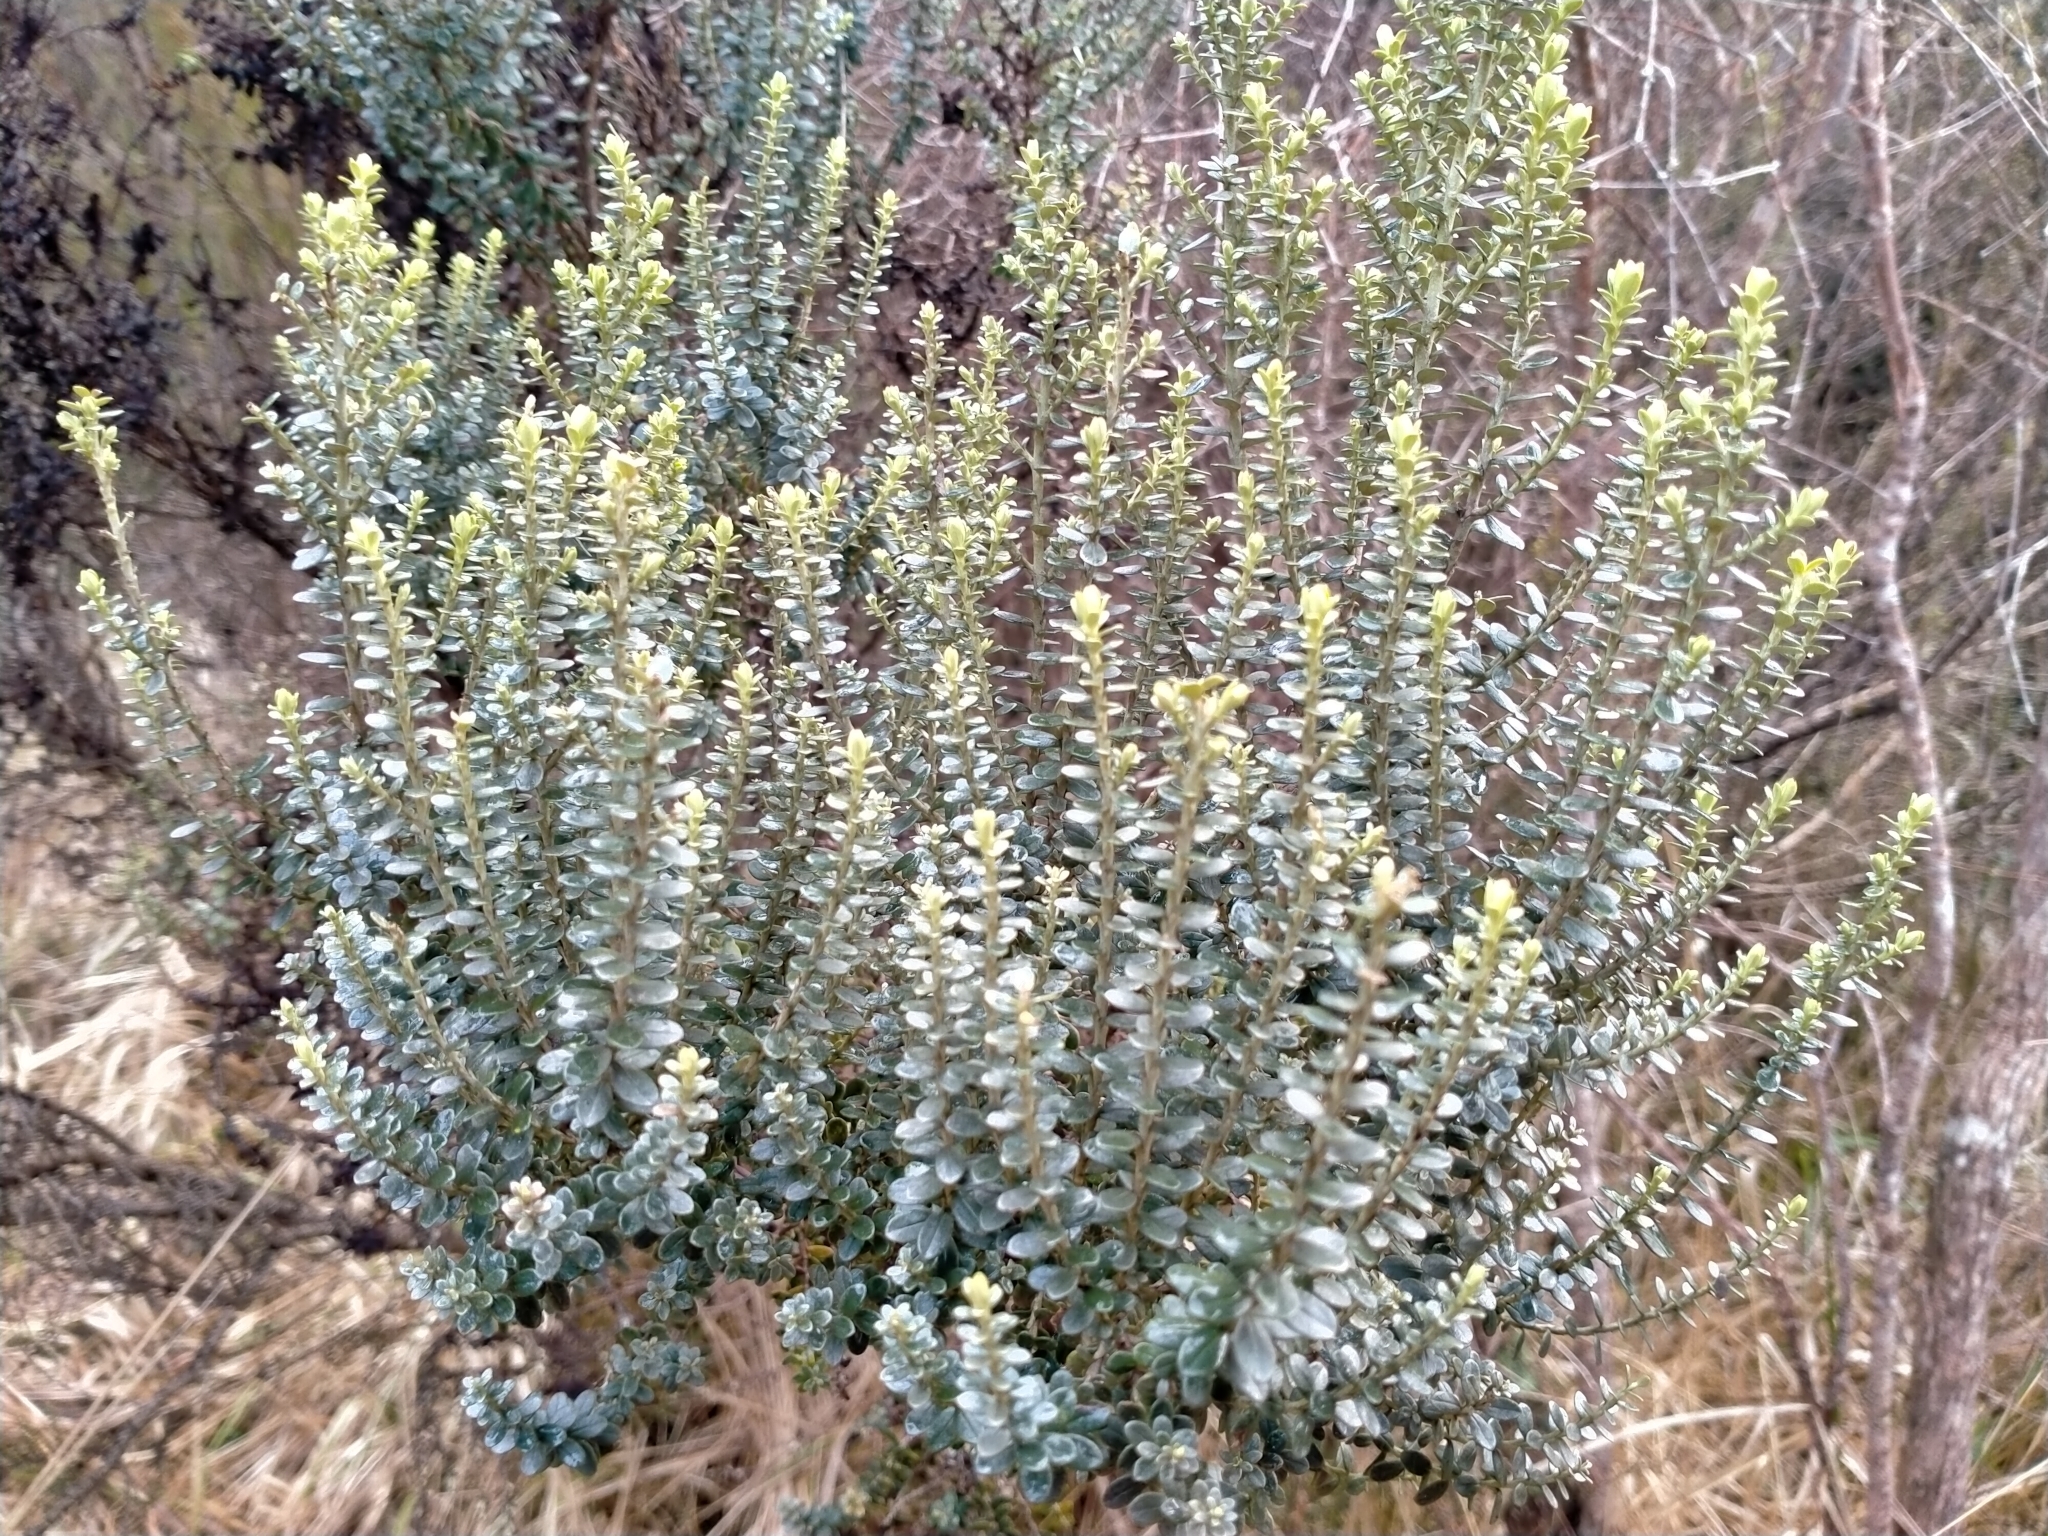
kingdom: Plantae
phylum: Tracheophyta
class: Magnoliopsida
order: Asterales
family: Asteraceae
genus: Ozothamnus
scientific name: Ozothamnus leptophyllus
